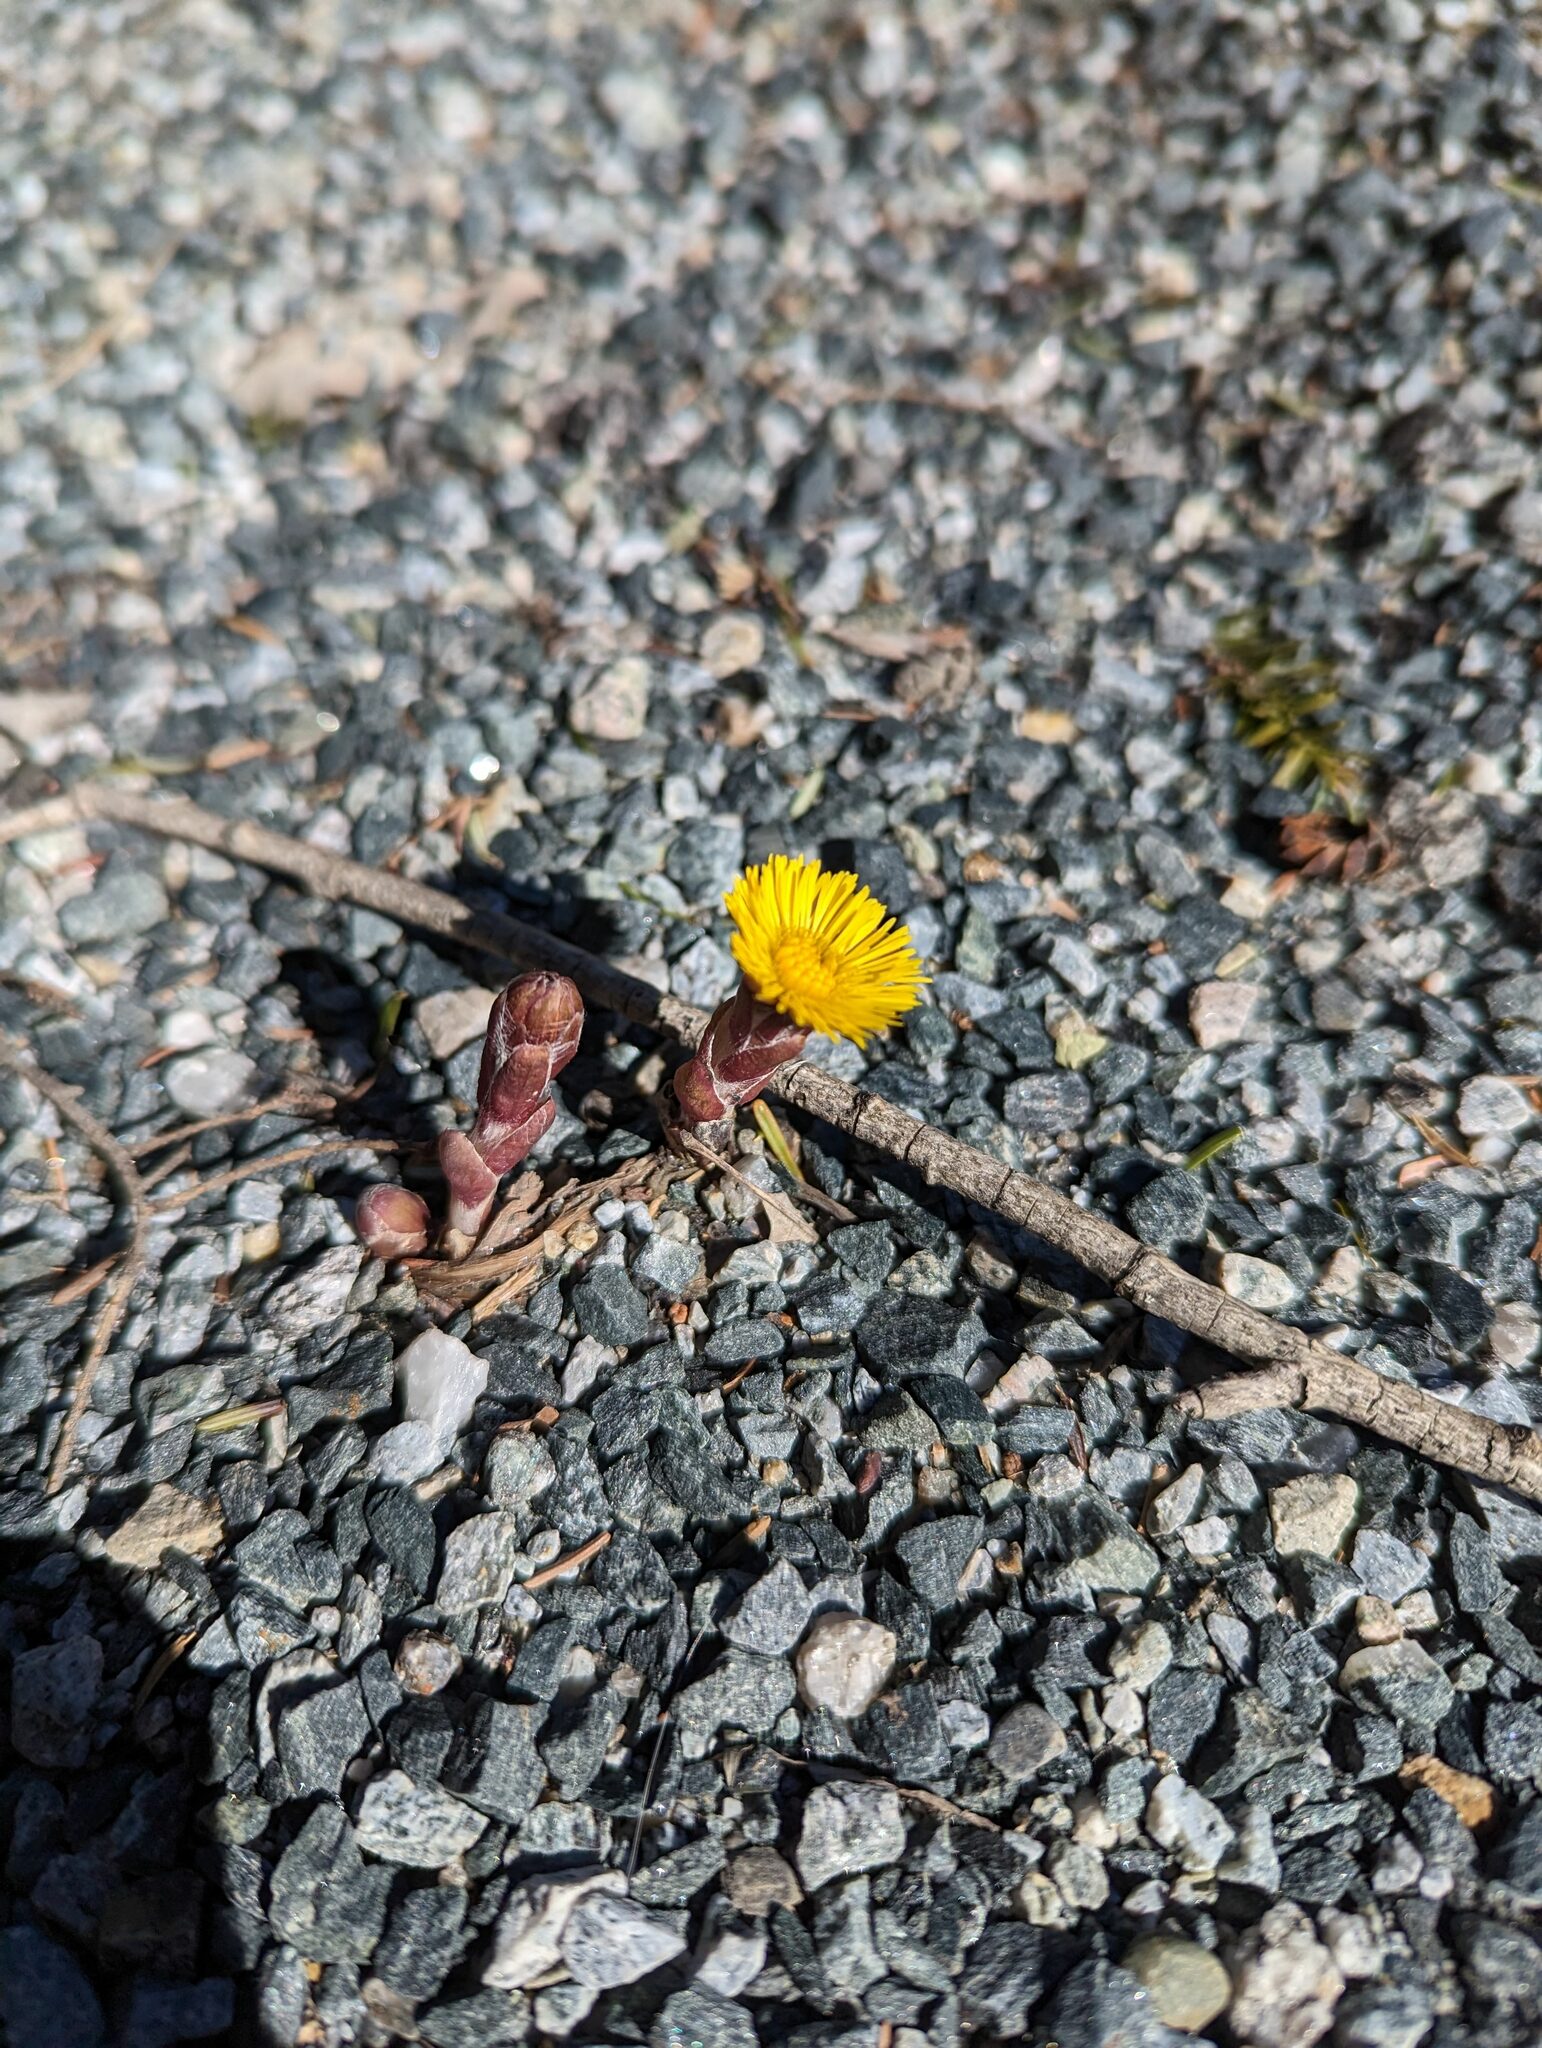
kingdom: Plantae
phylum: Tracheophyta
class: Magnoliopsida
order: Asterales
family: Asteraceae
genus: Tussilago
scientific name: Tussilago farfara
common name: Coltsfoot
